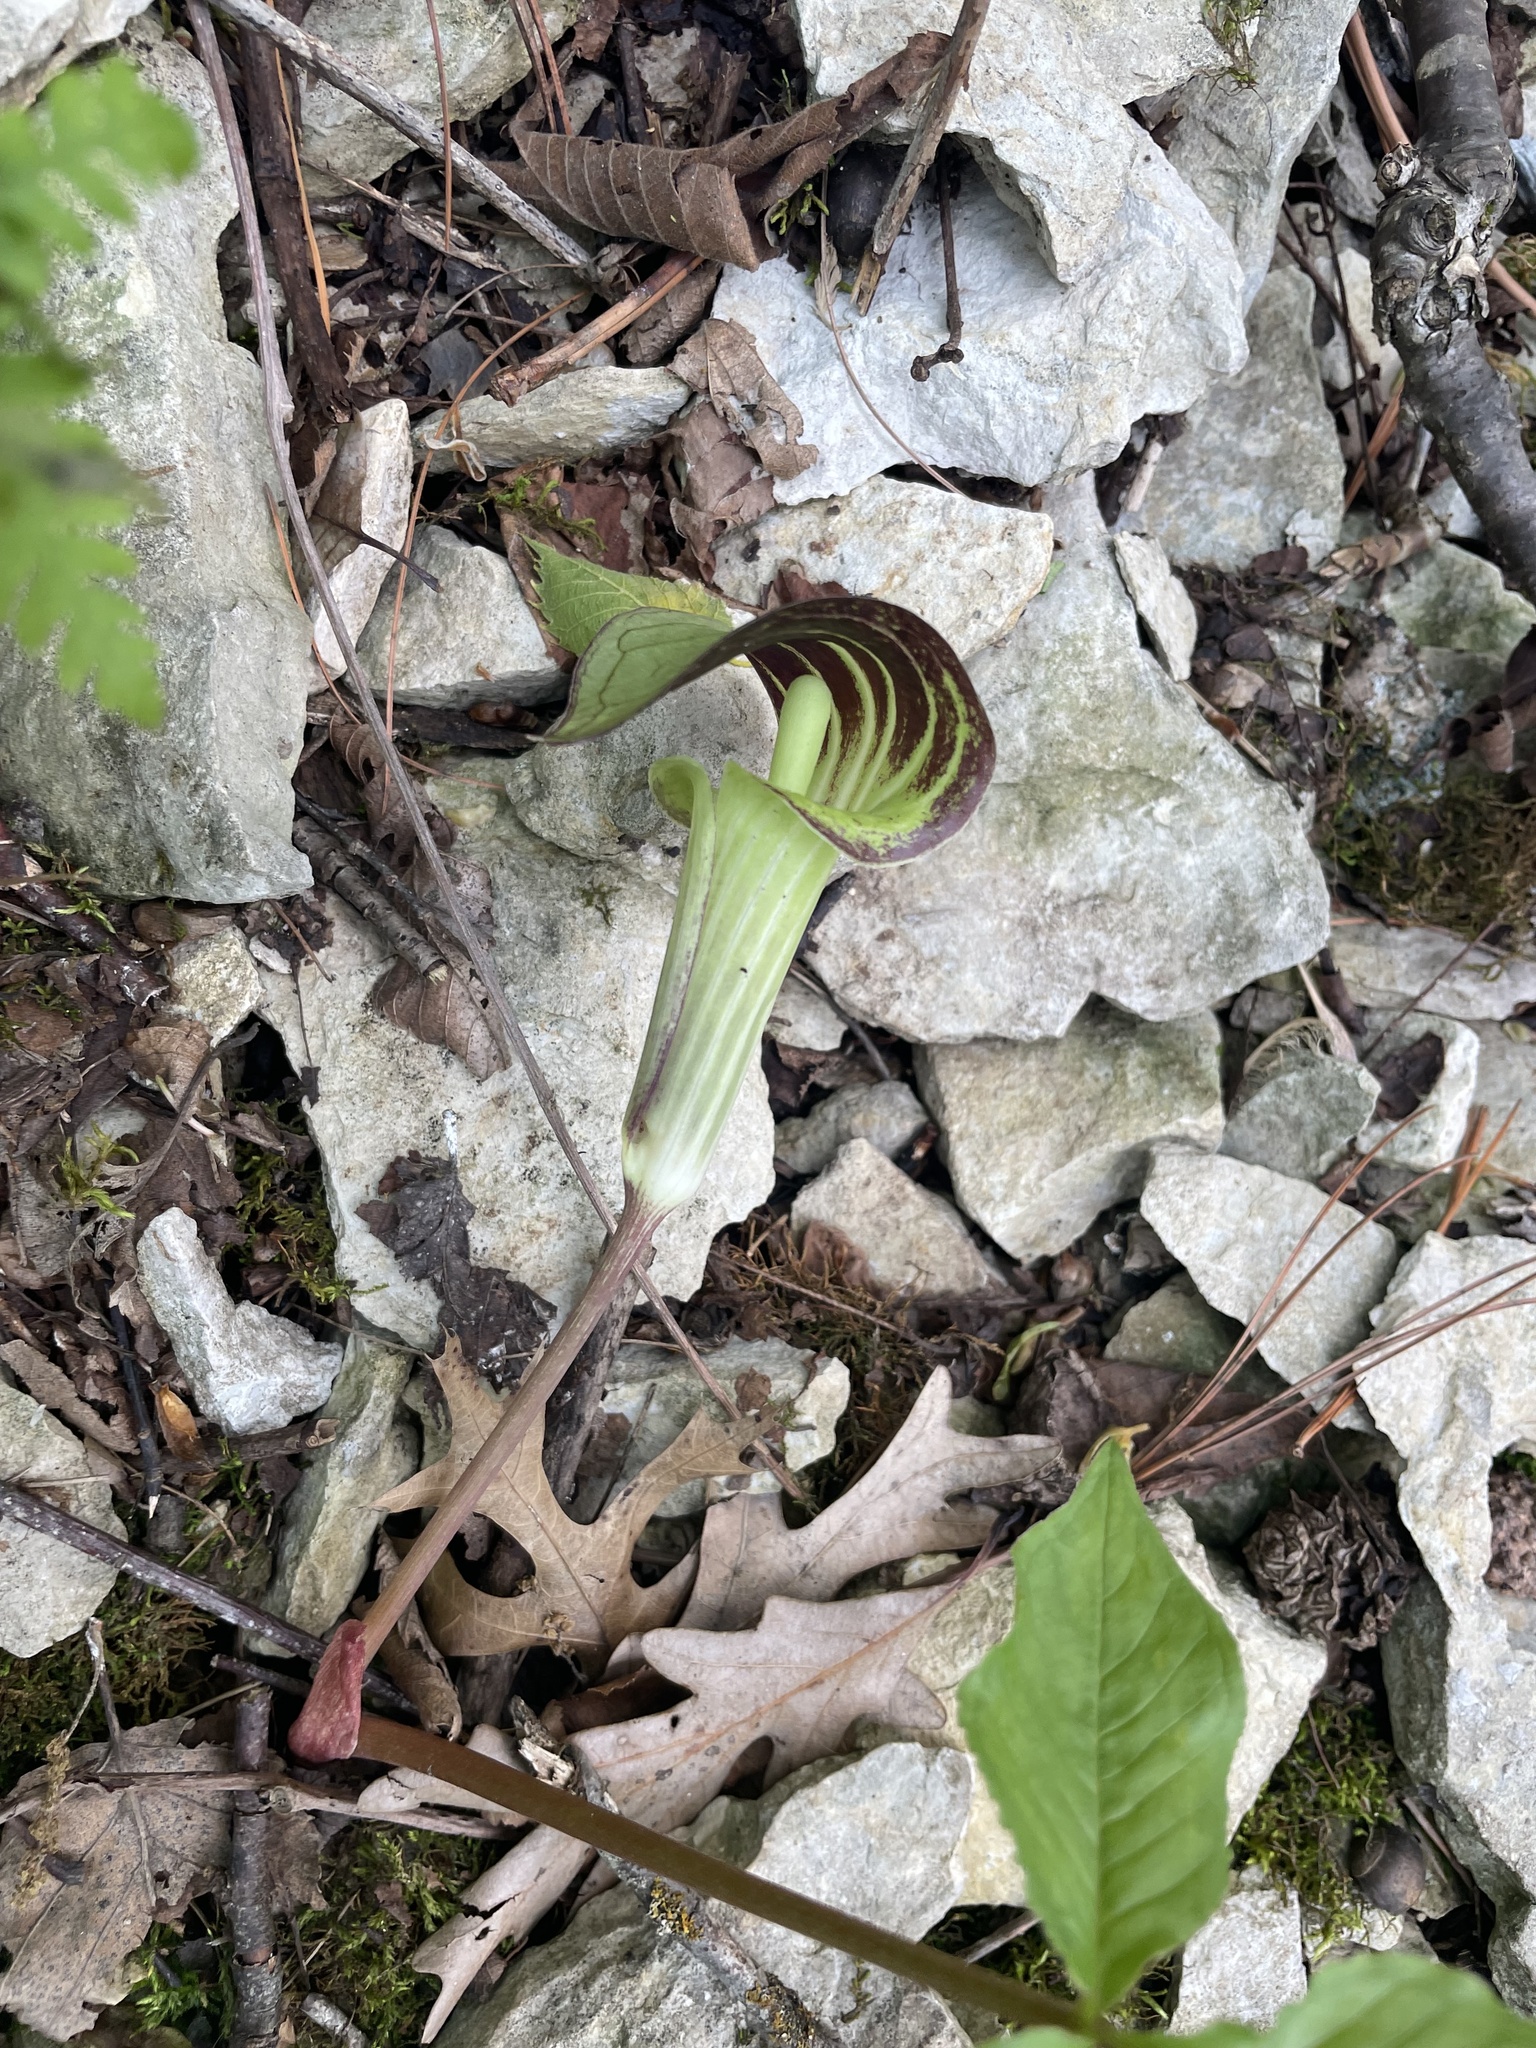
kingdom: Plantae
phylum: Tracheophyta
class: Liliopsida
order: Alismatales
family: Araceae
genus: Arisaema
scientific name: Arisaema triphyllum
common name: Jack-in-the-pulpit
